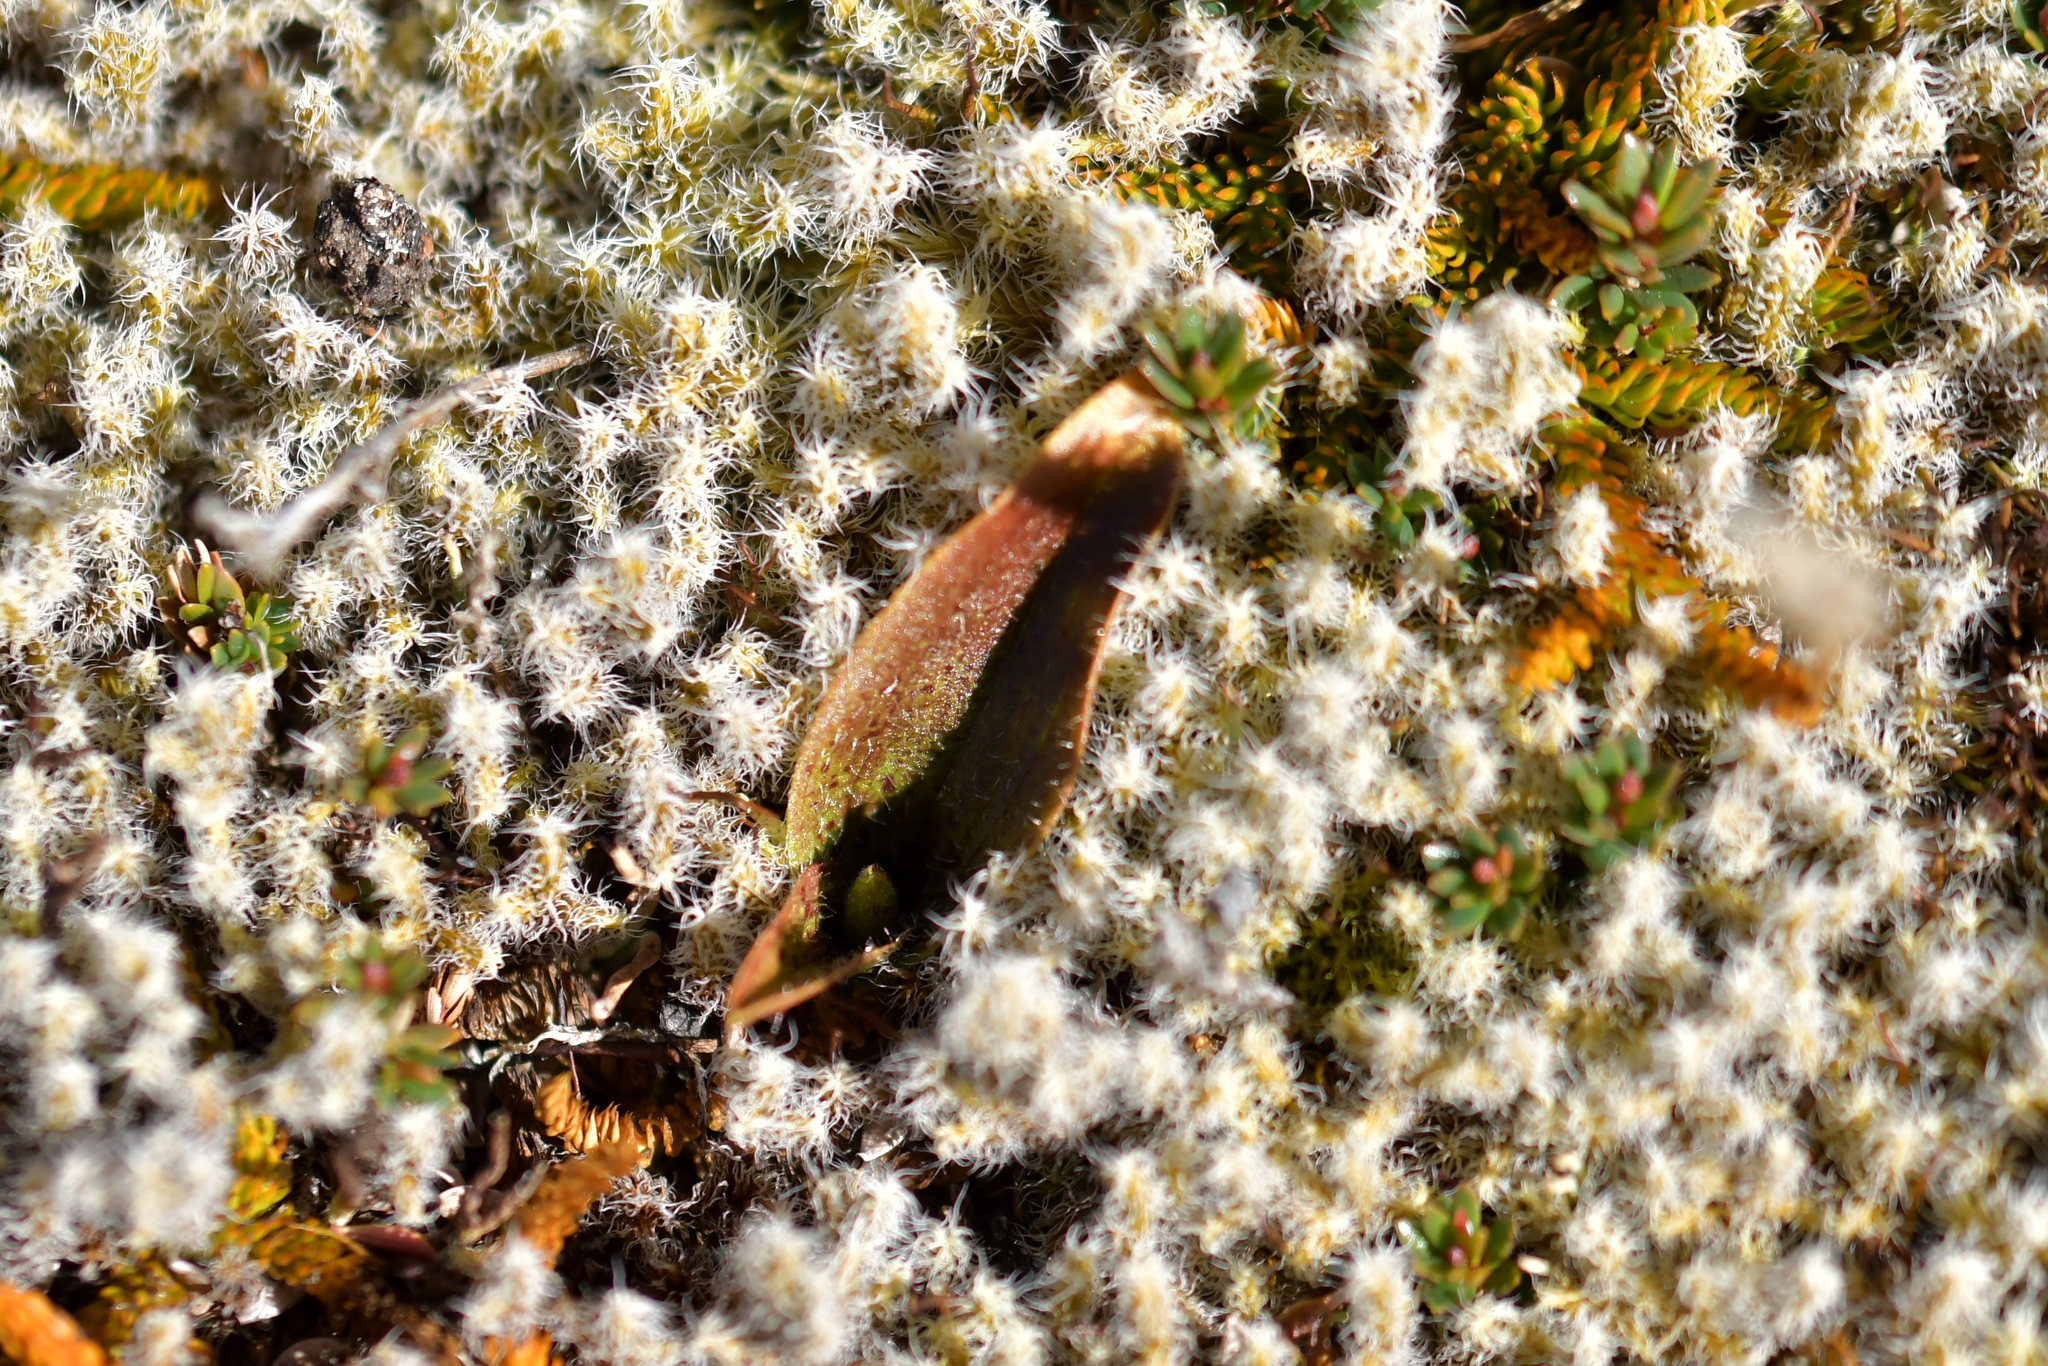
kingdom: Plantae
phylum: Tracheophyta
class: Liliopsida
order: Asparagales
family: Orchidaceae
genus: Aporostylis
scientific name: Aporostylis bifolia
